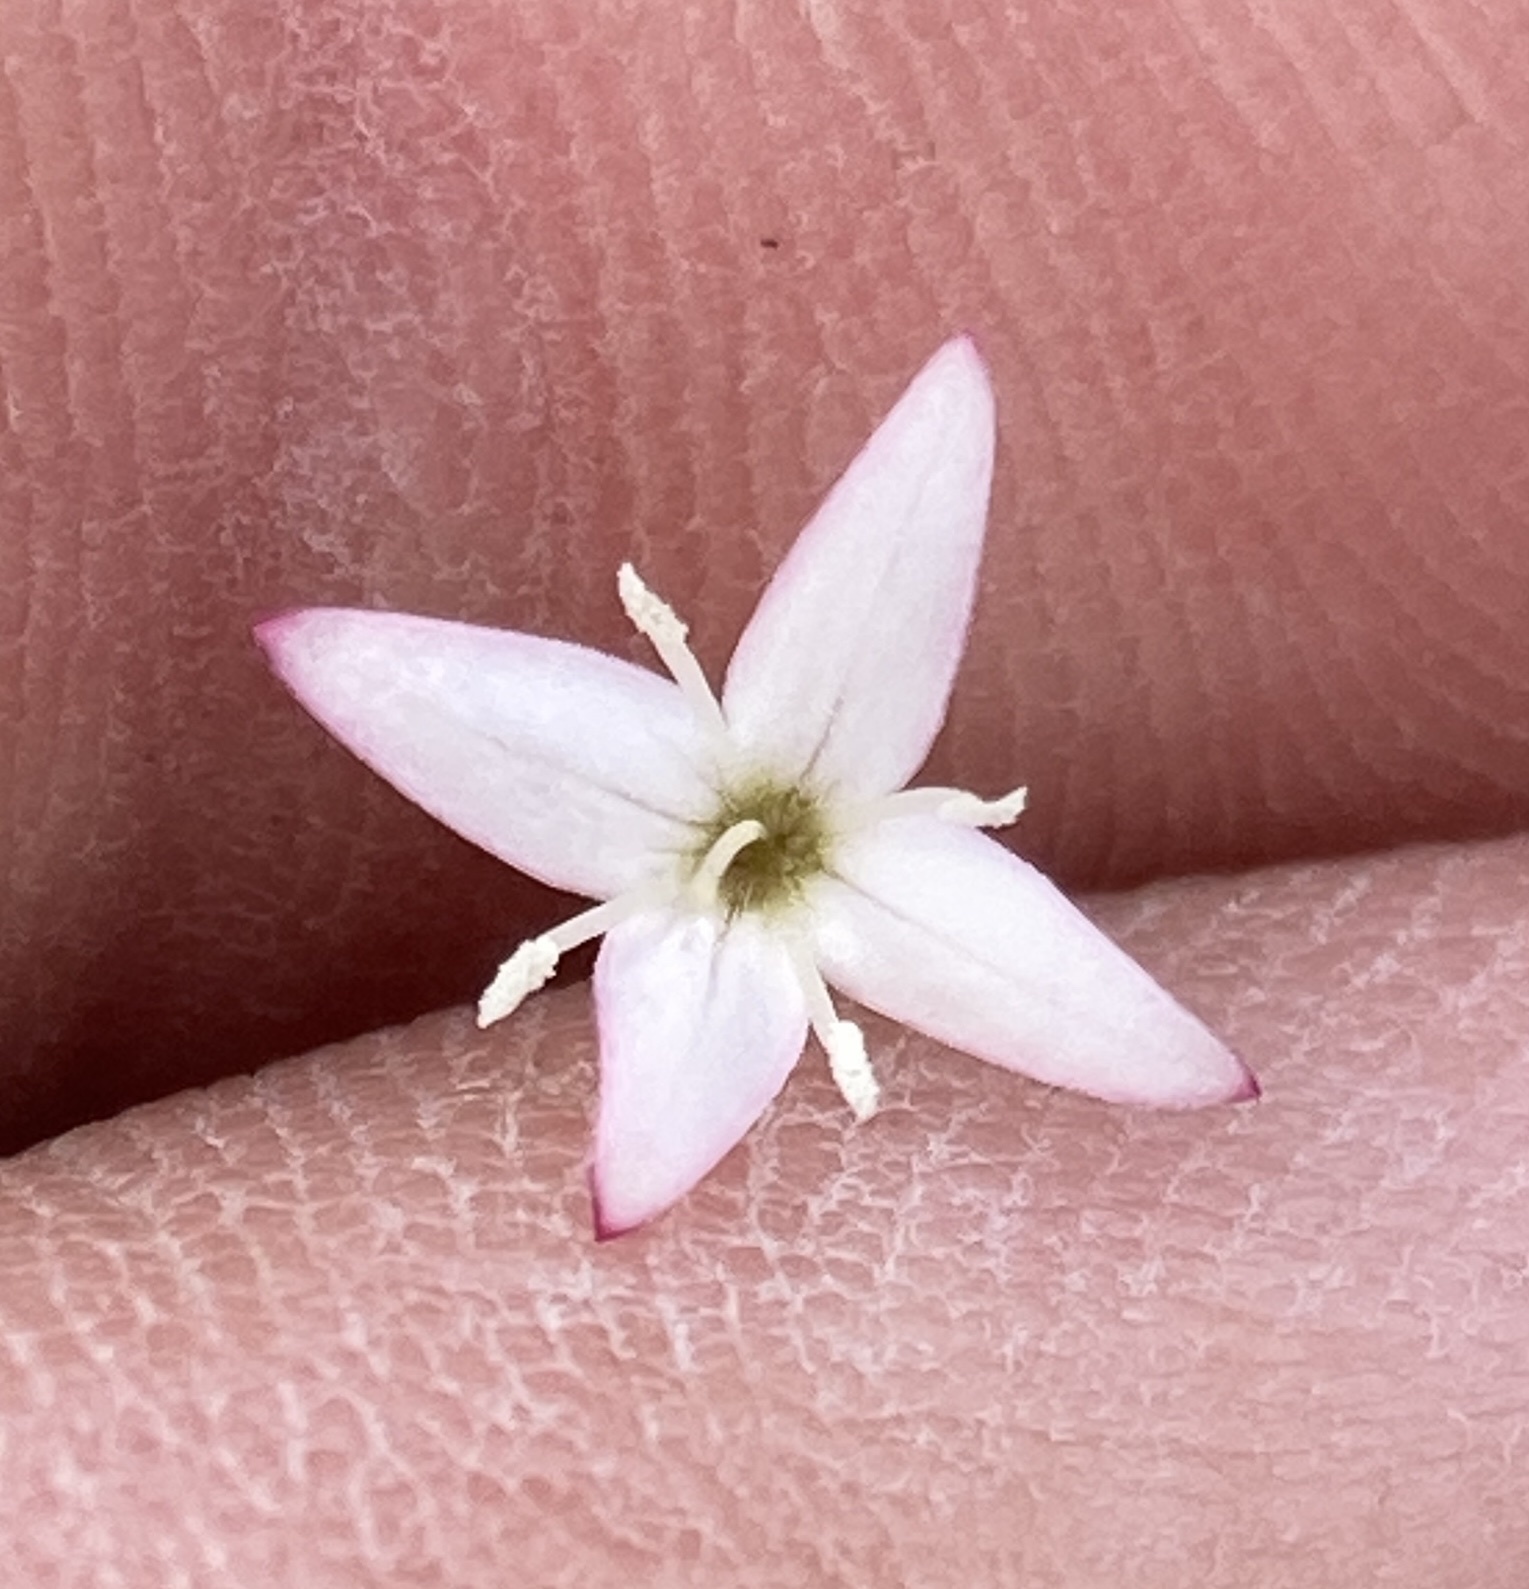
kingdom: Plantae
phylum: Tracheophyta
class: Magnoliopsida
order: Gentianales
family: Rubiaceae
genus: Kelloggia
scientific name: Kelloggia galioides
